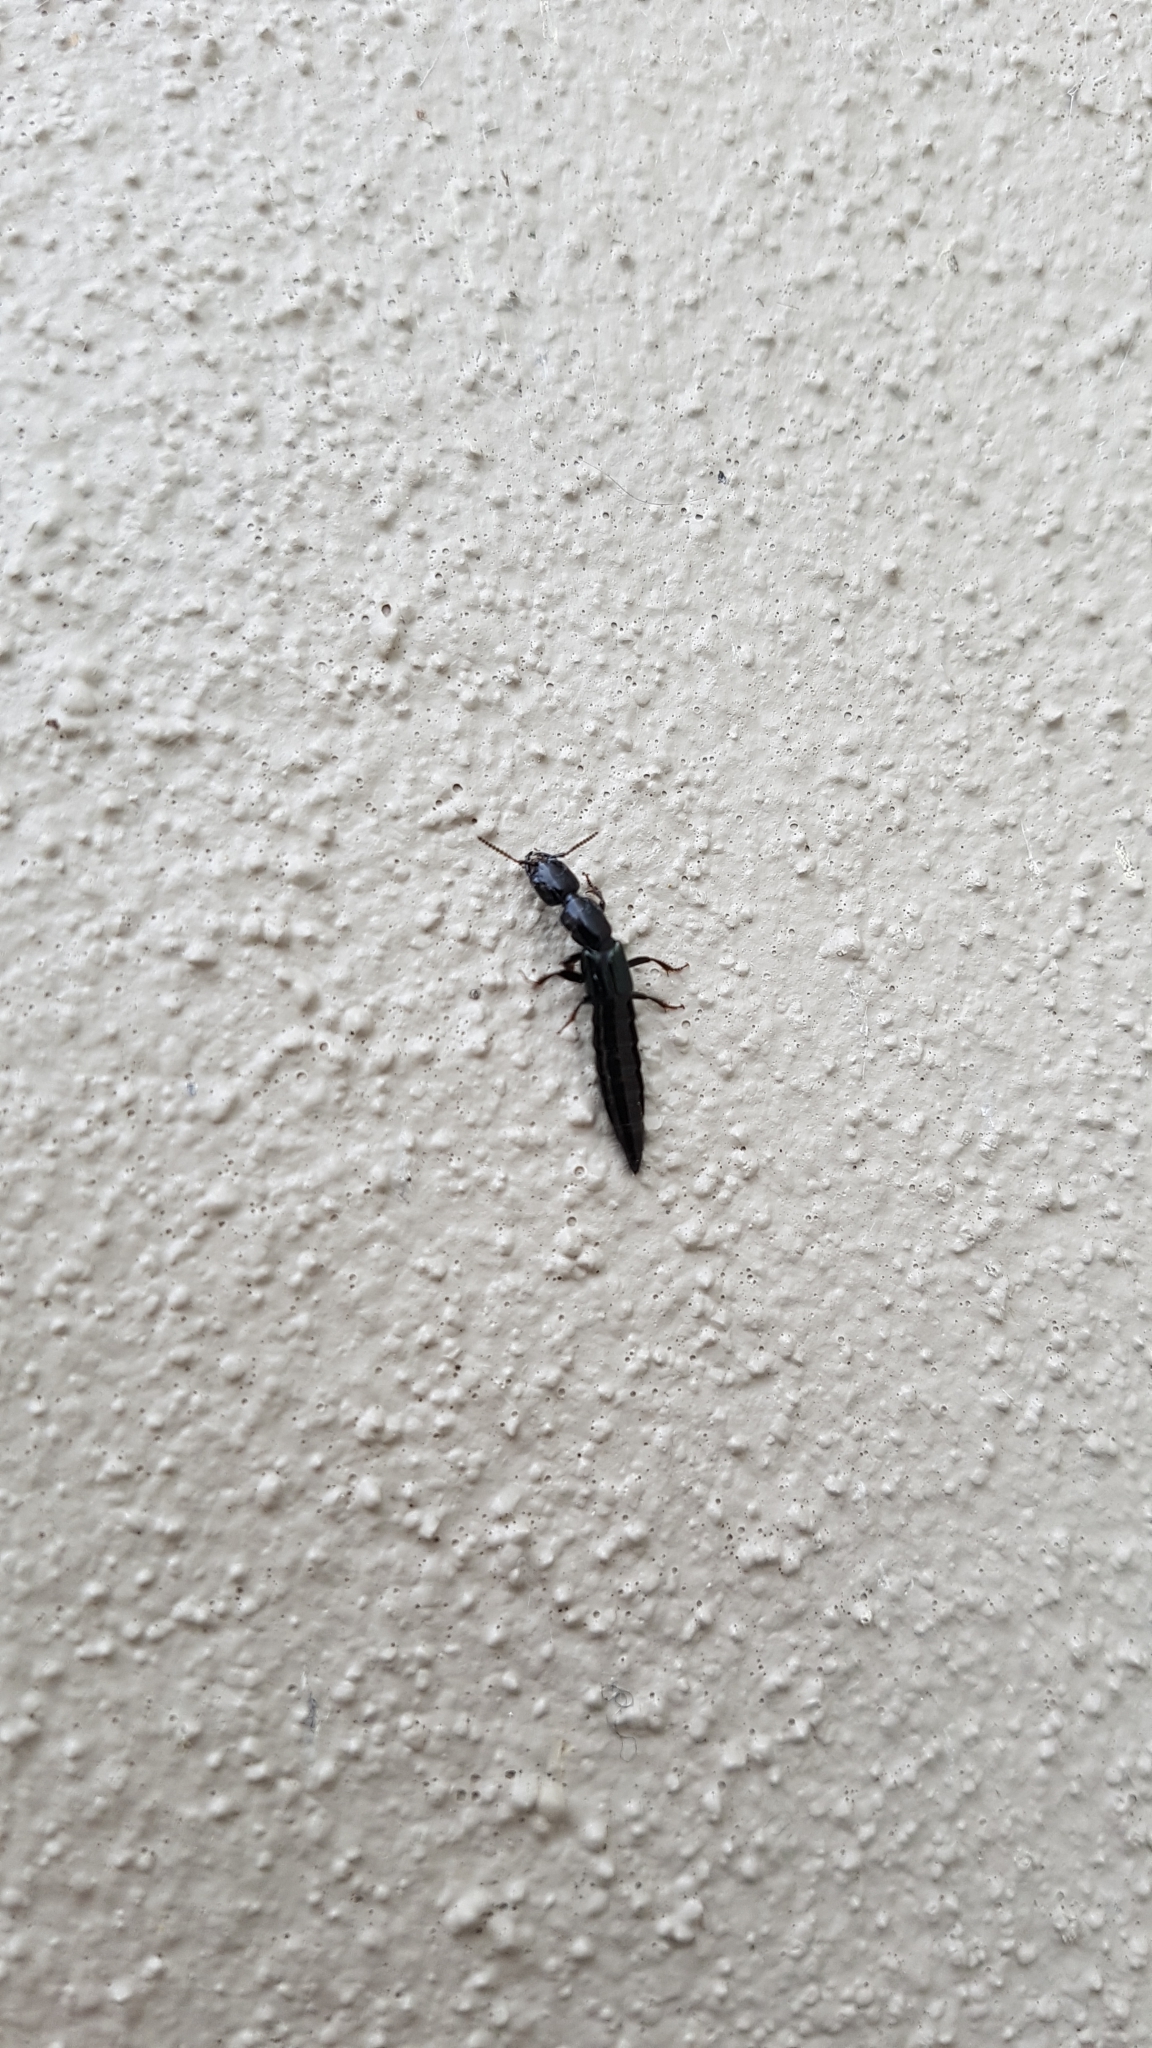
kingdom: Animalia
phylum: Arthropoda
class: Insecta
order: Coleoptera
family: Staphylinidae
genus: Thyreocephalus
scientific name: Thyreocephalus orthodoxus
